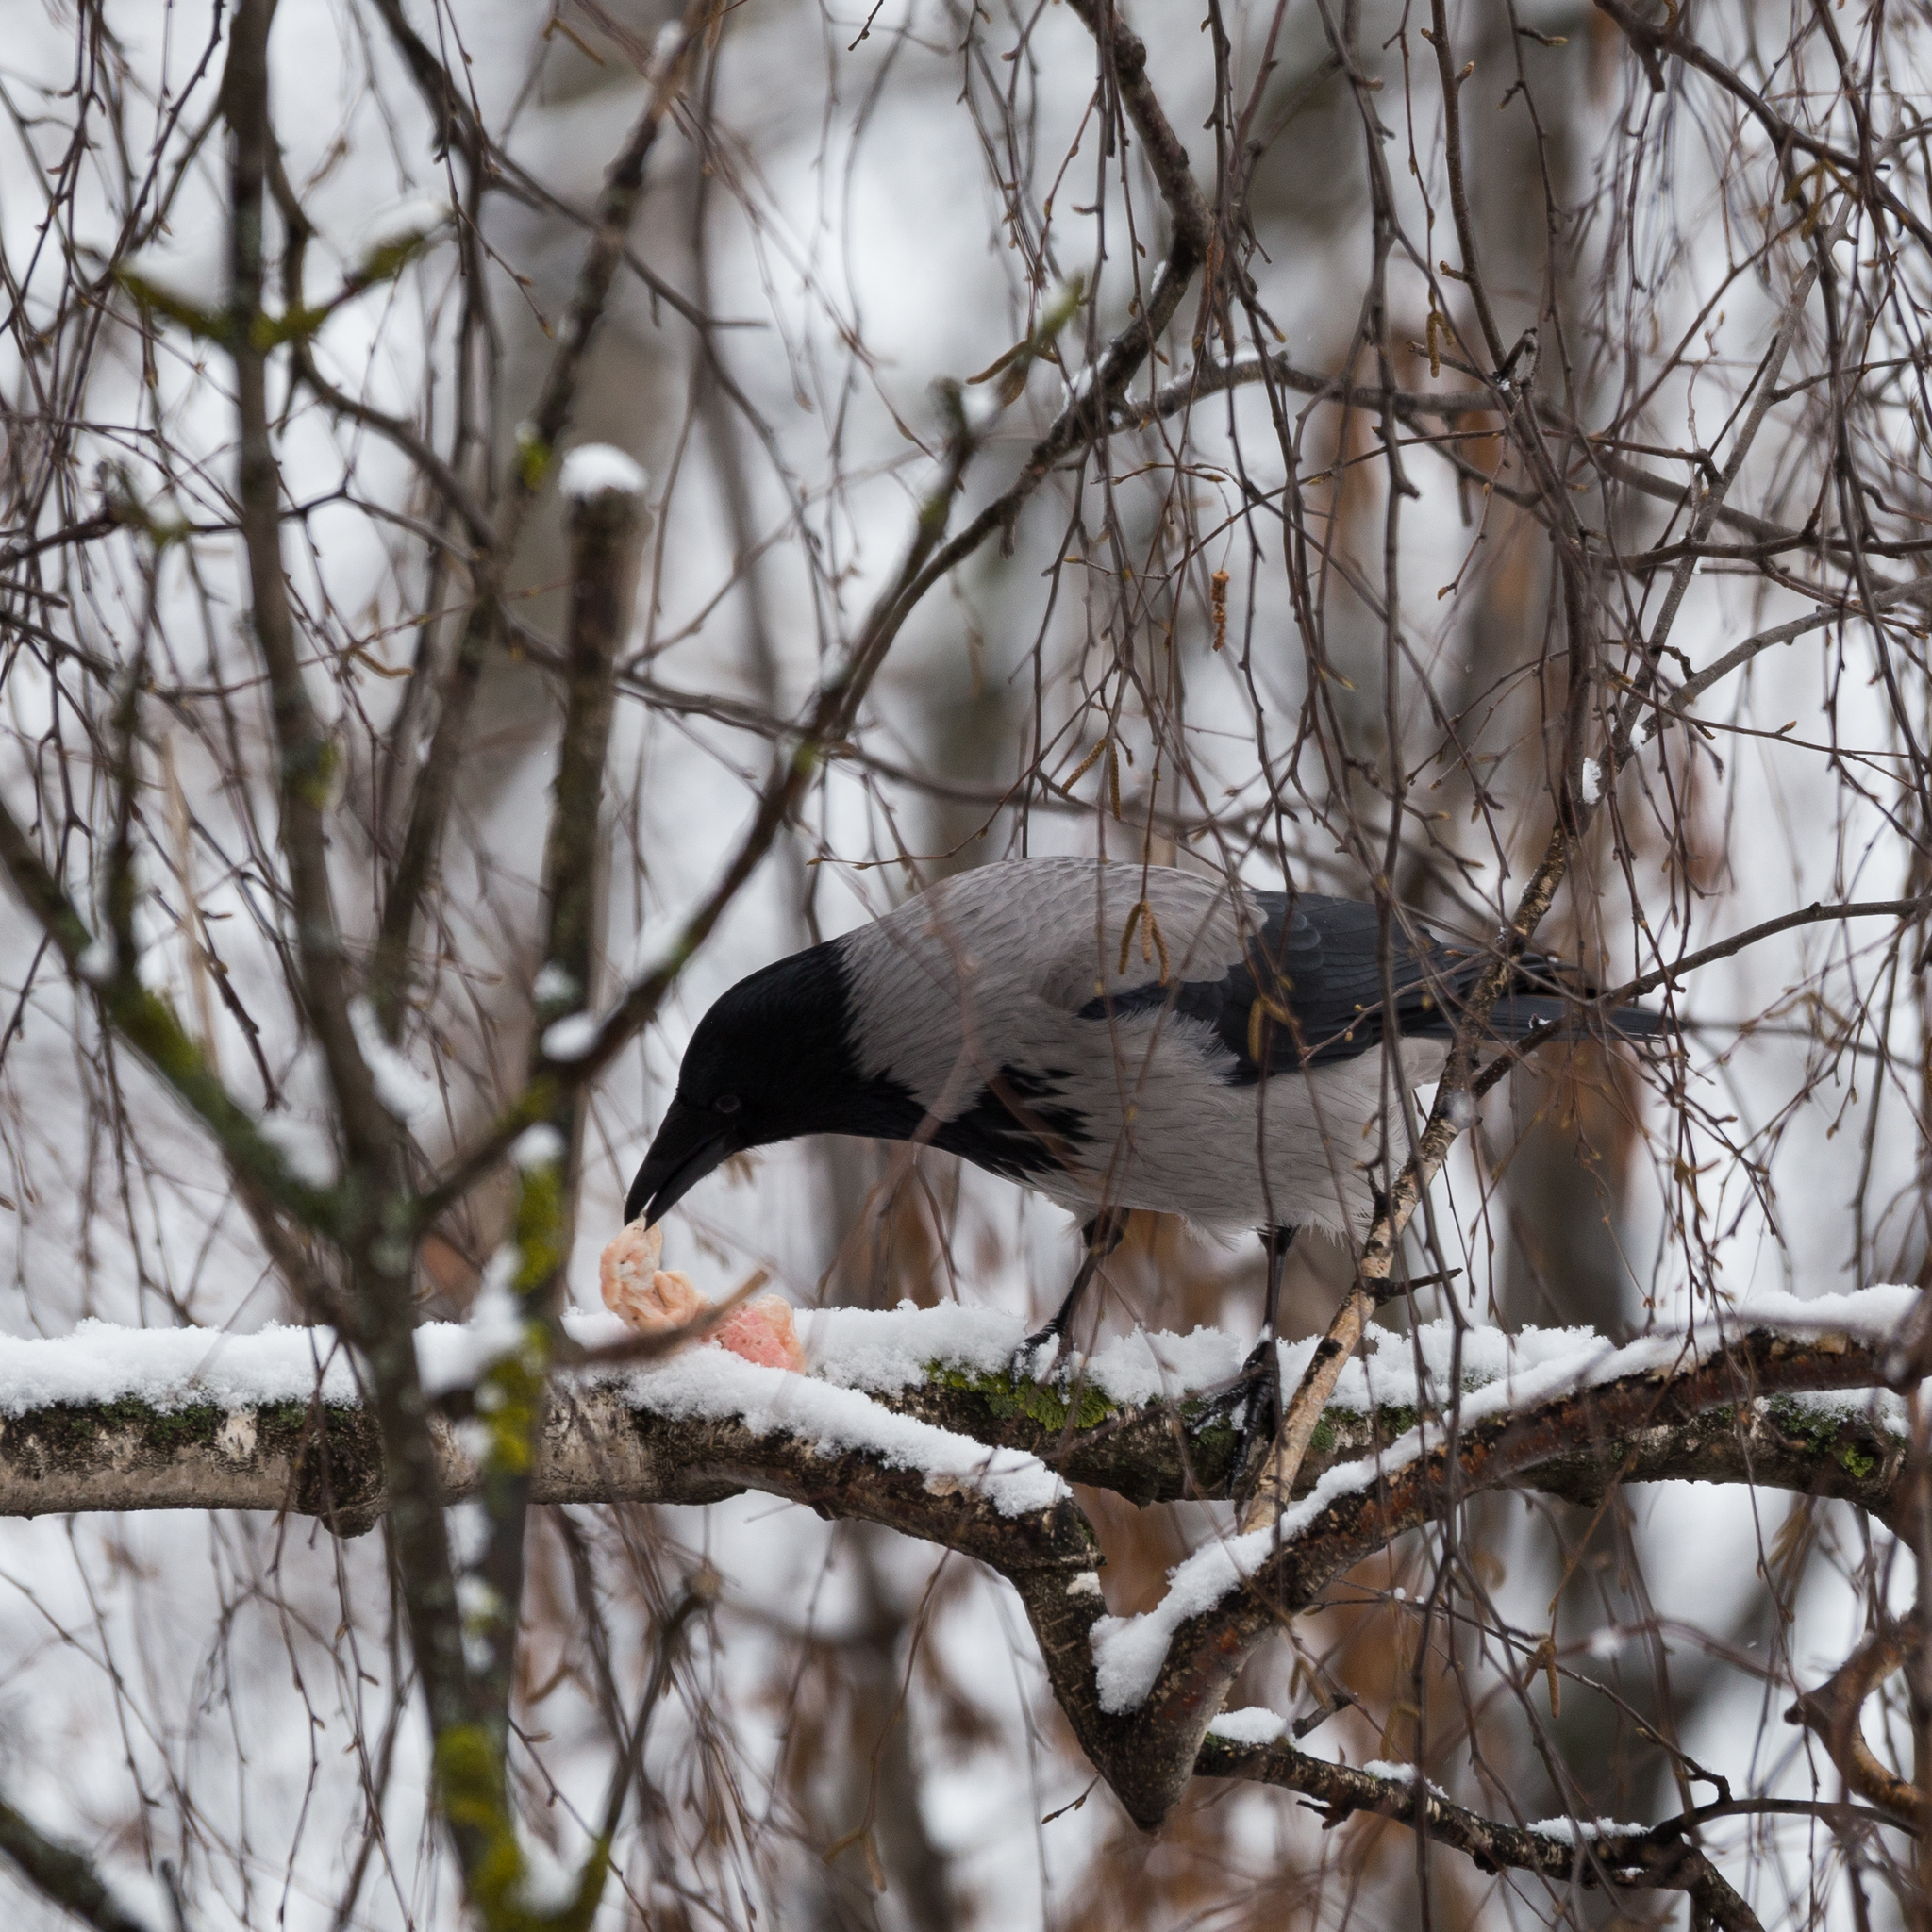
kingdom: Animalia
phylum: Chordata
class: Aves
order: Passeriformes
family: Corvidae
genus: Corvus
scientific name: Corvus cornix
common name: Hooded crow
